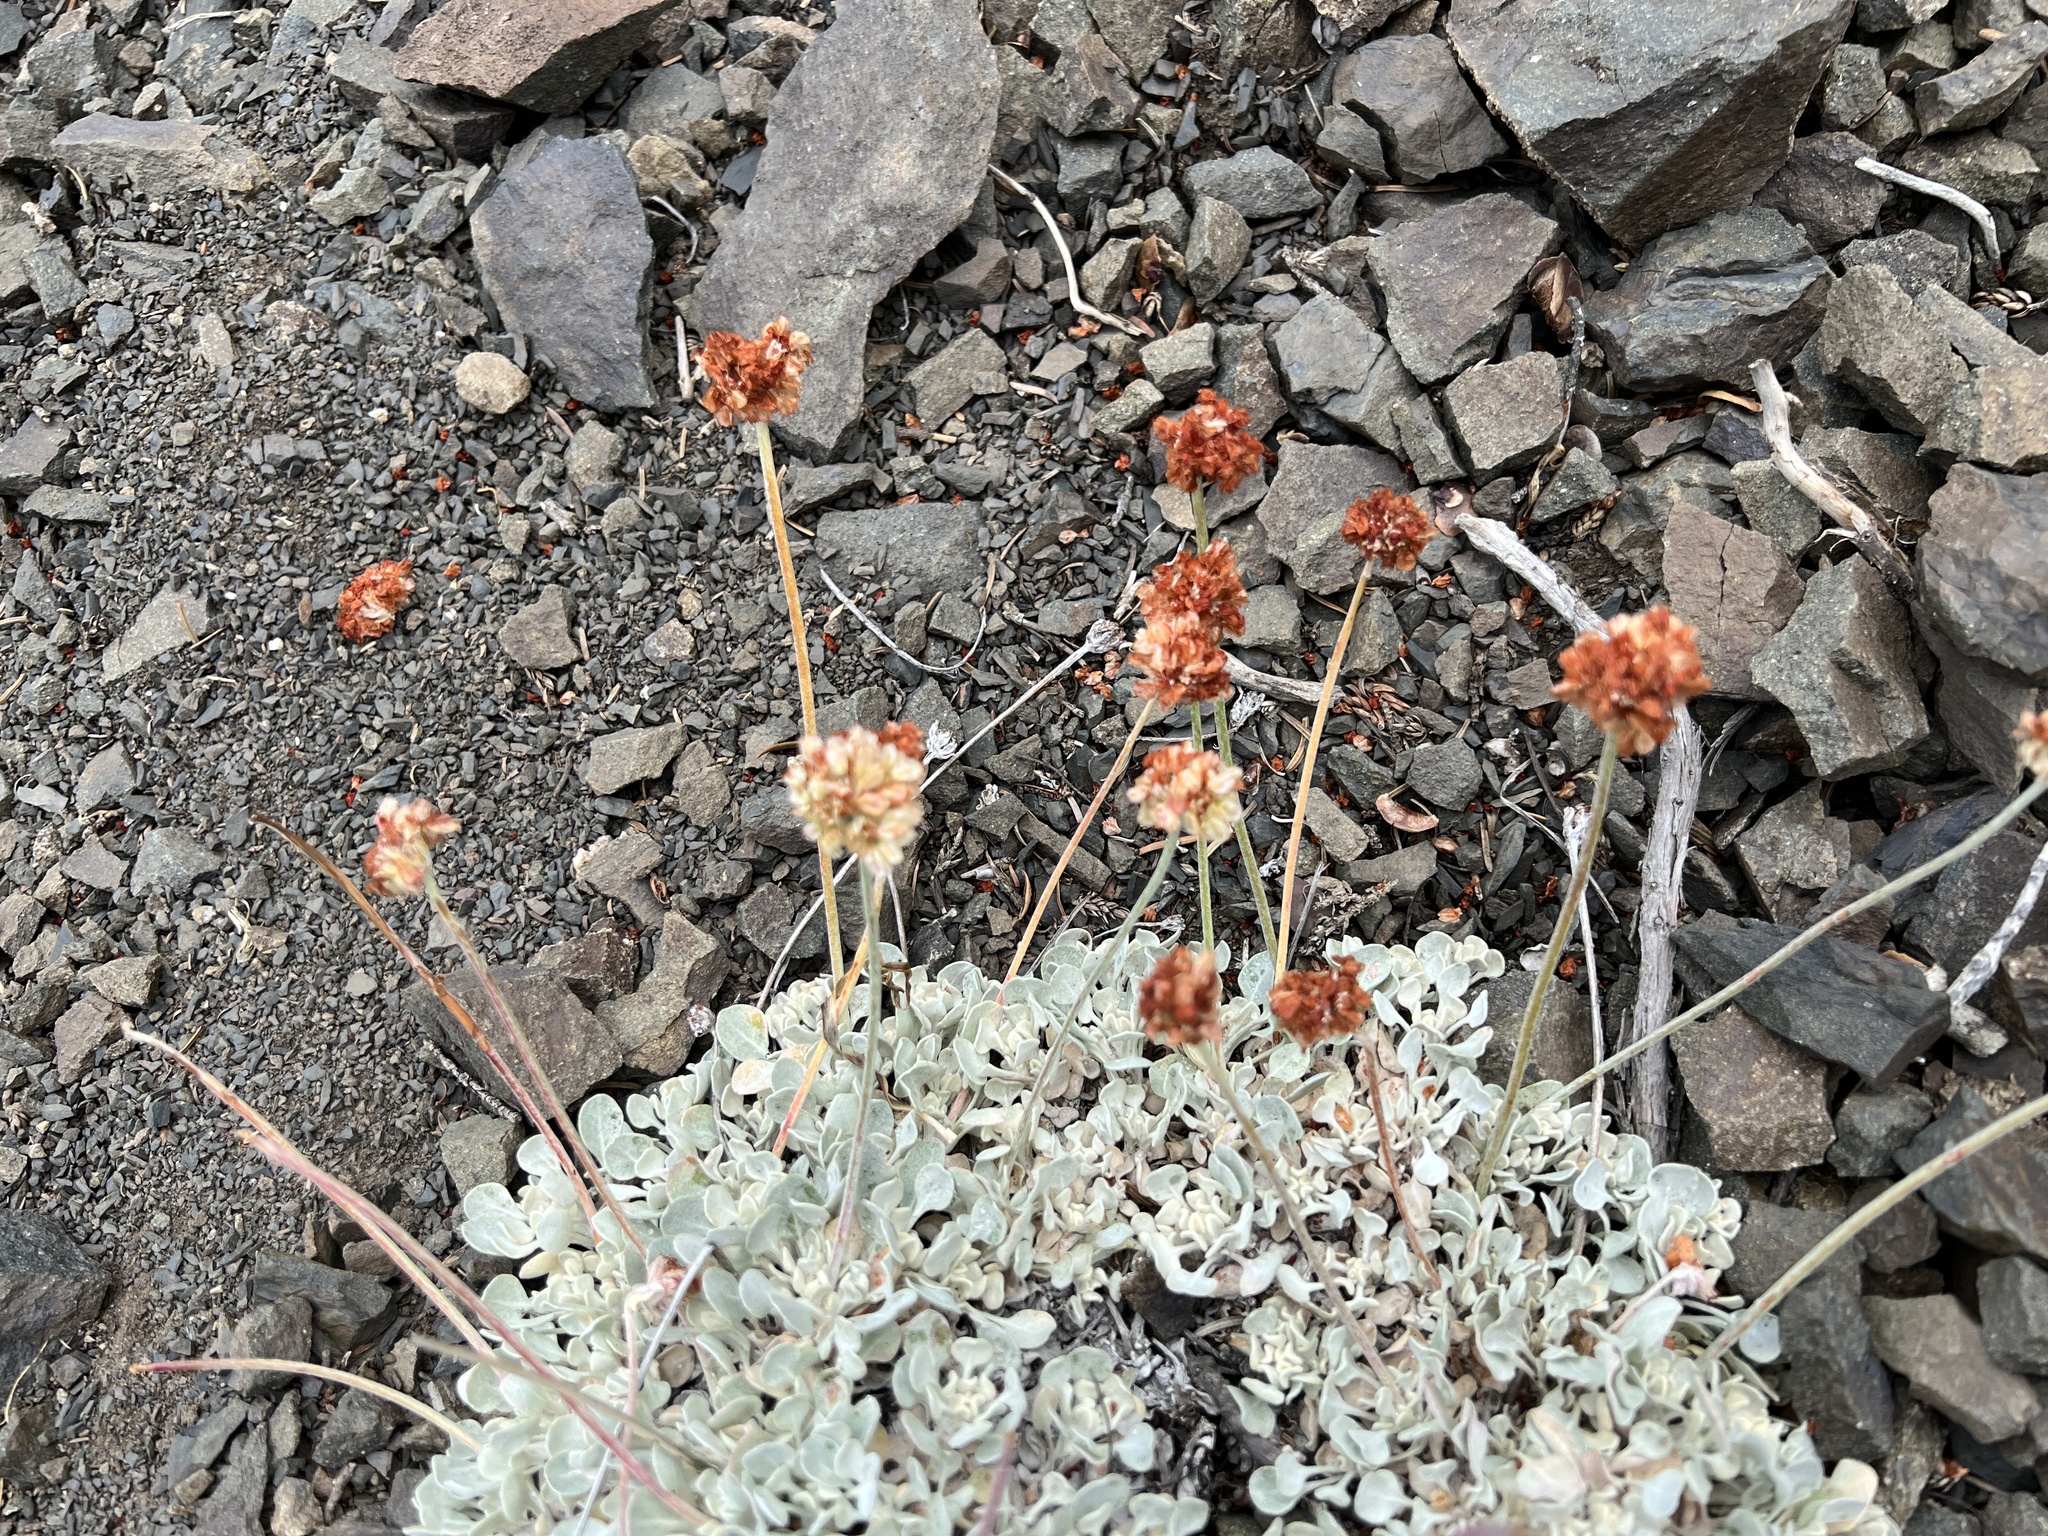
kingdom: Plantae
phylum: Tracheophyta
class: Magnoliopsida
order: Caryophyllales
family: Polygonaceae
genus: Eriogonum
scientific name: Eriogonum ovalifolium
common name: Cushion buckwheat
